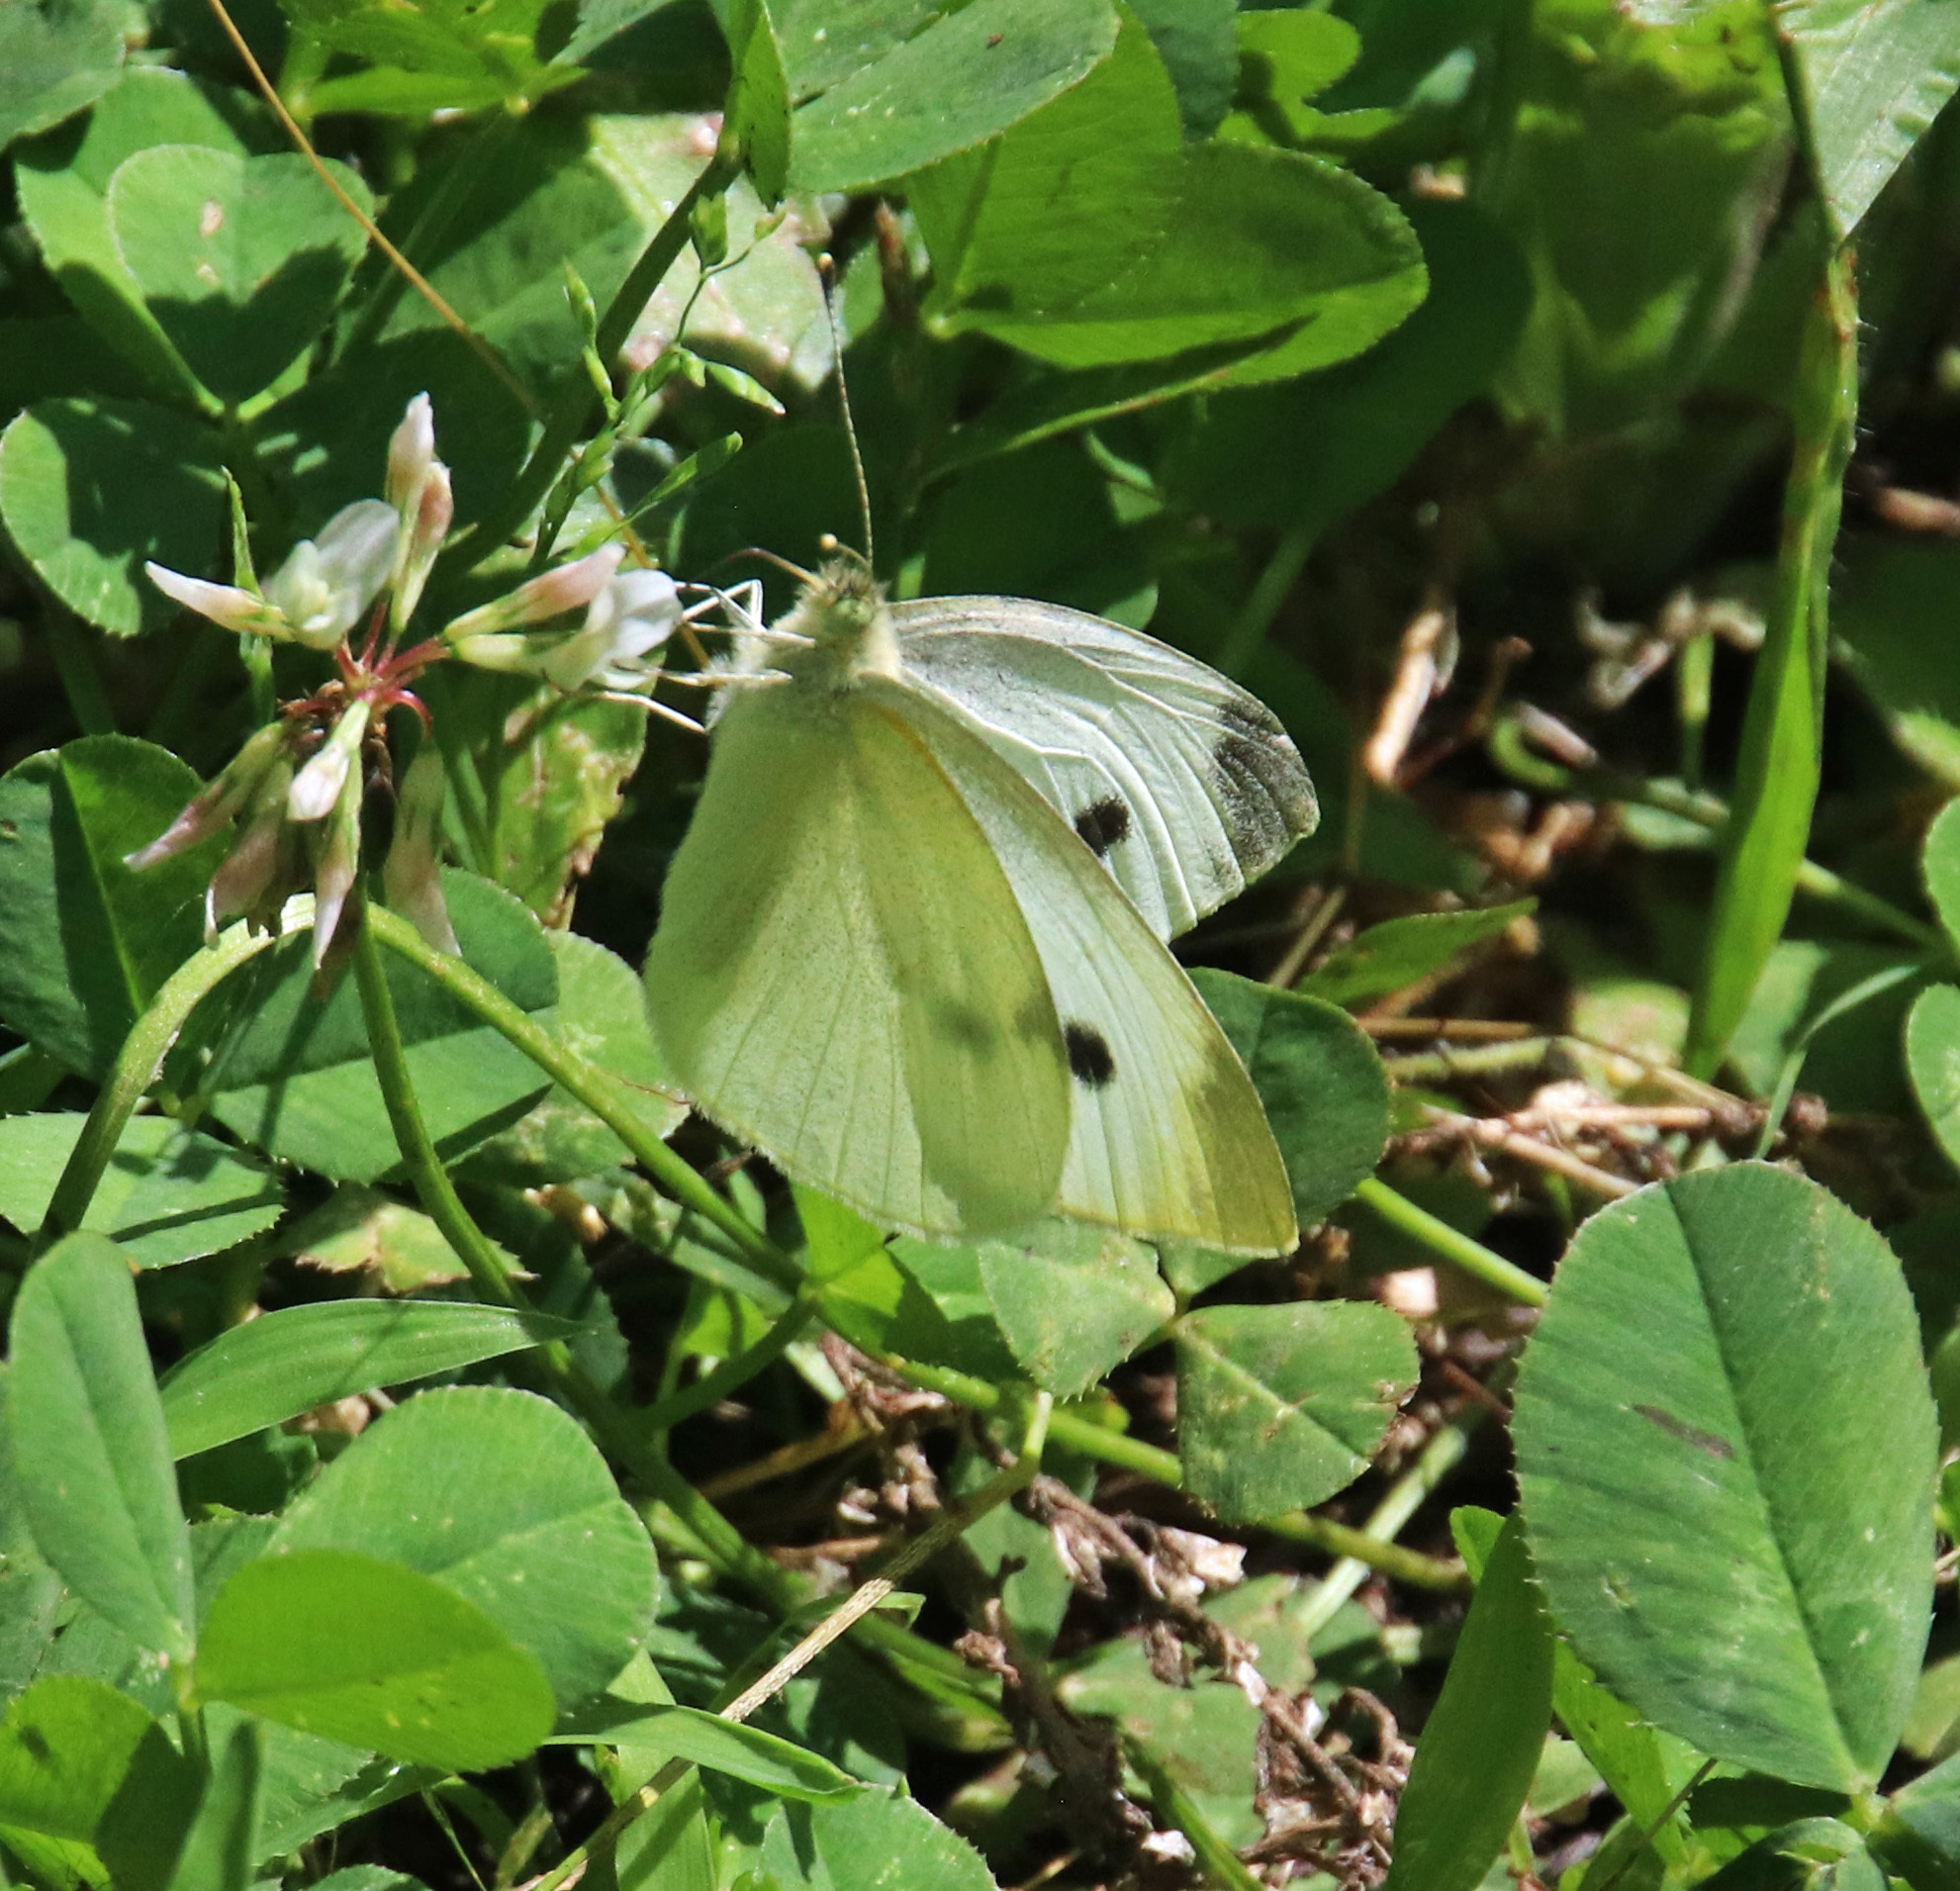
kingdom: Animalia
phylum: Arthropoda
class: Insecta
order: Lepidoptera
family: Pieridae
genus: Pieris
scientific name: Pieris rapae
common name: Small white
